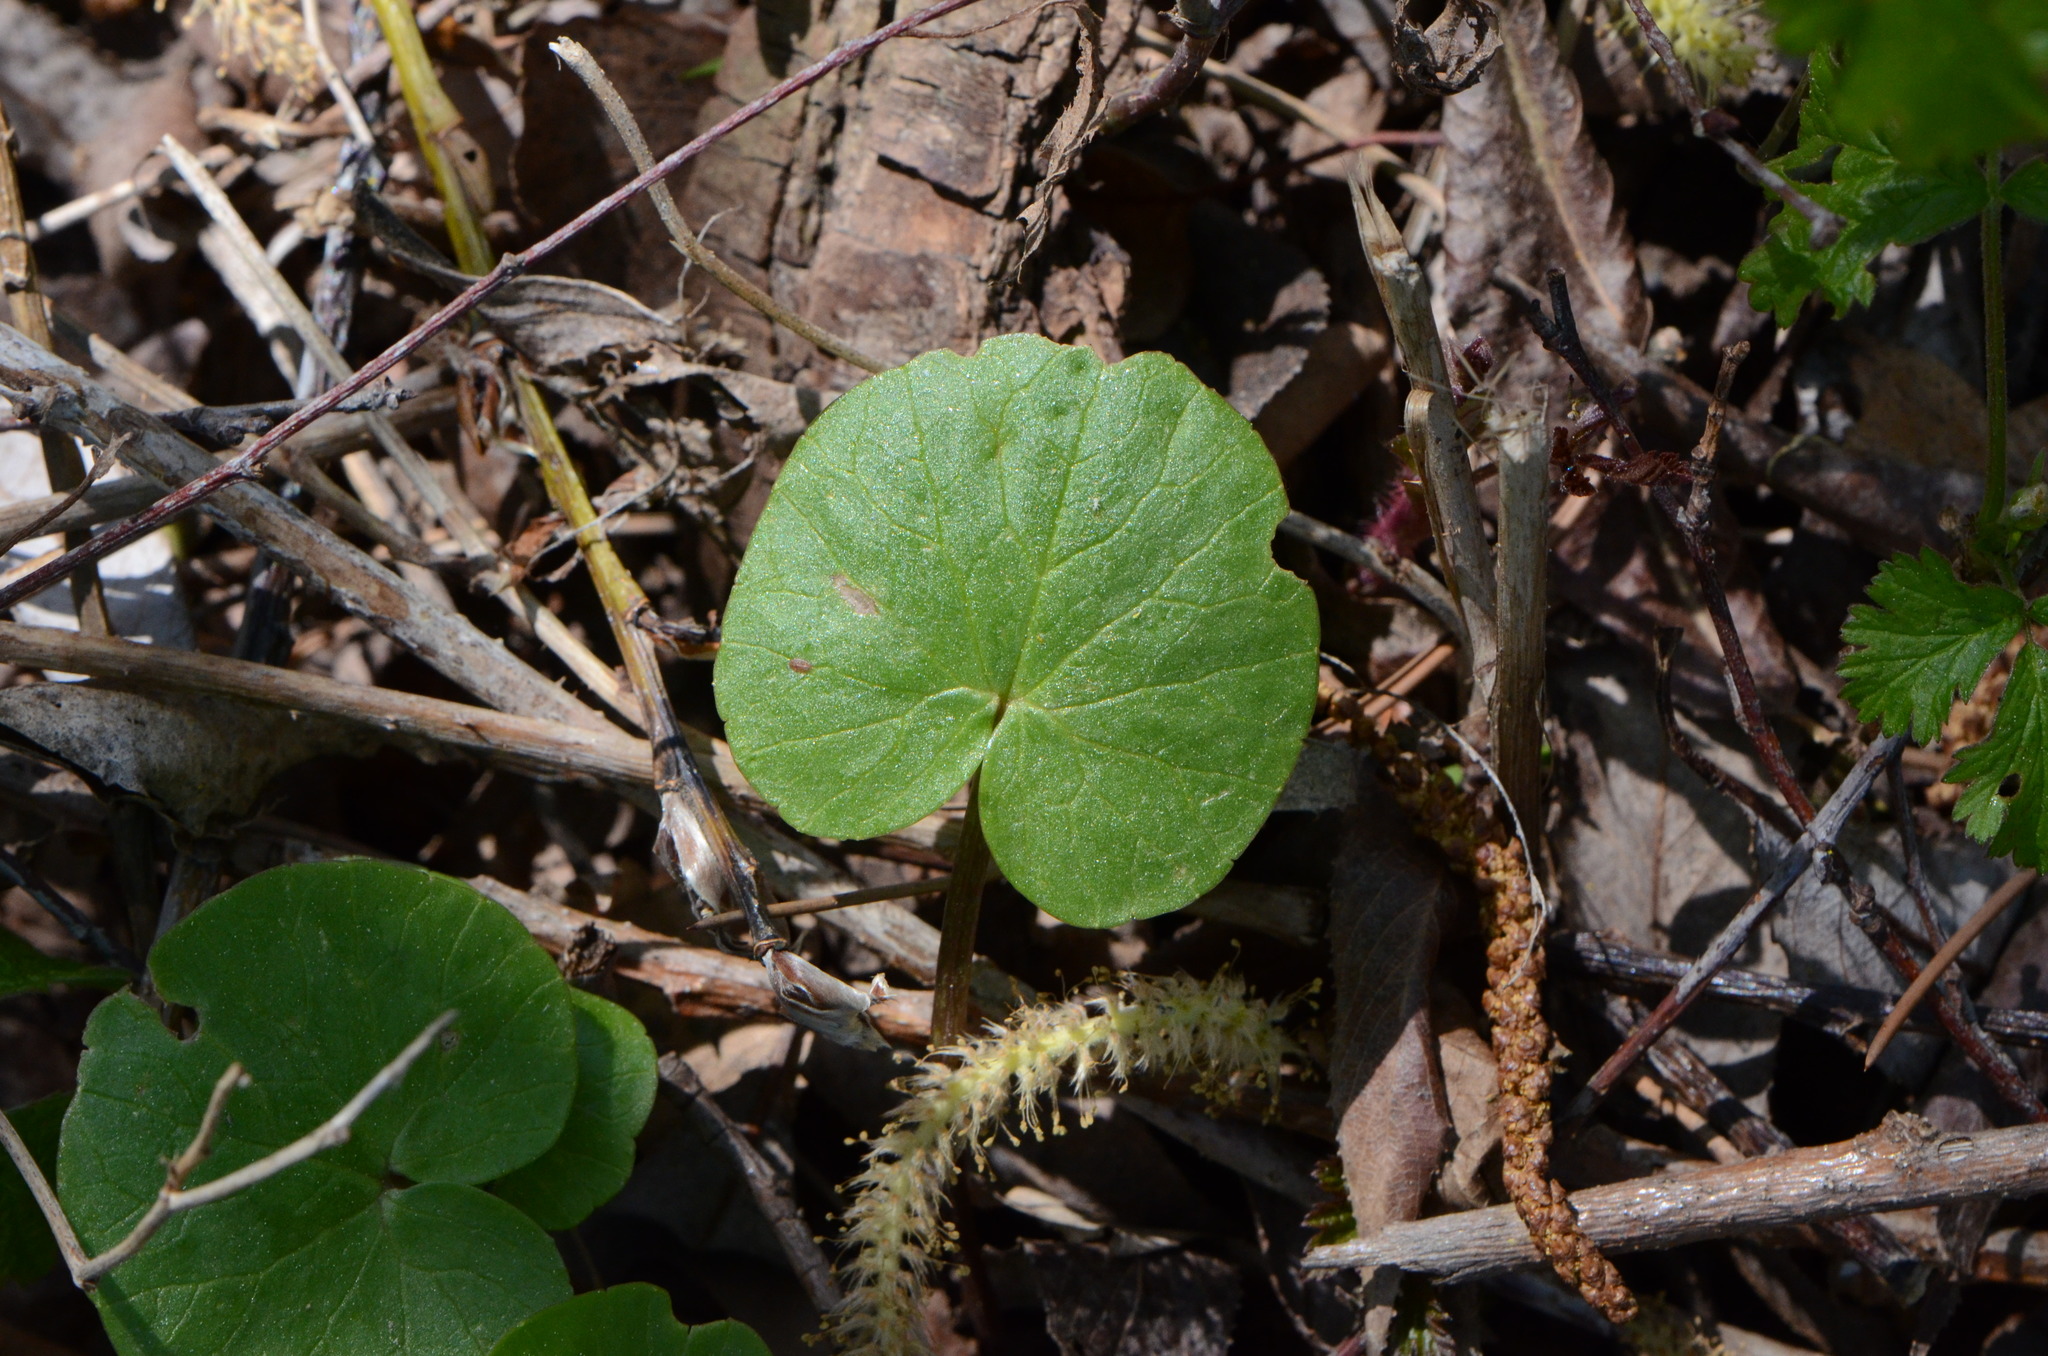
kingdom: Plantae
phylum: Tracheophyta
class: Magnoliopsida
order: Ranunculales
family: Ranunculaceae
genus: Ficaria
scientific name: Ficaria verna
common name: Lesser celandine
